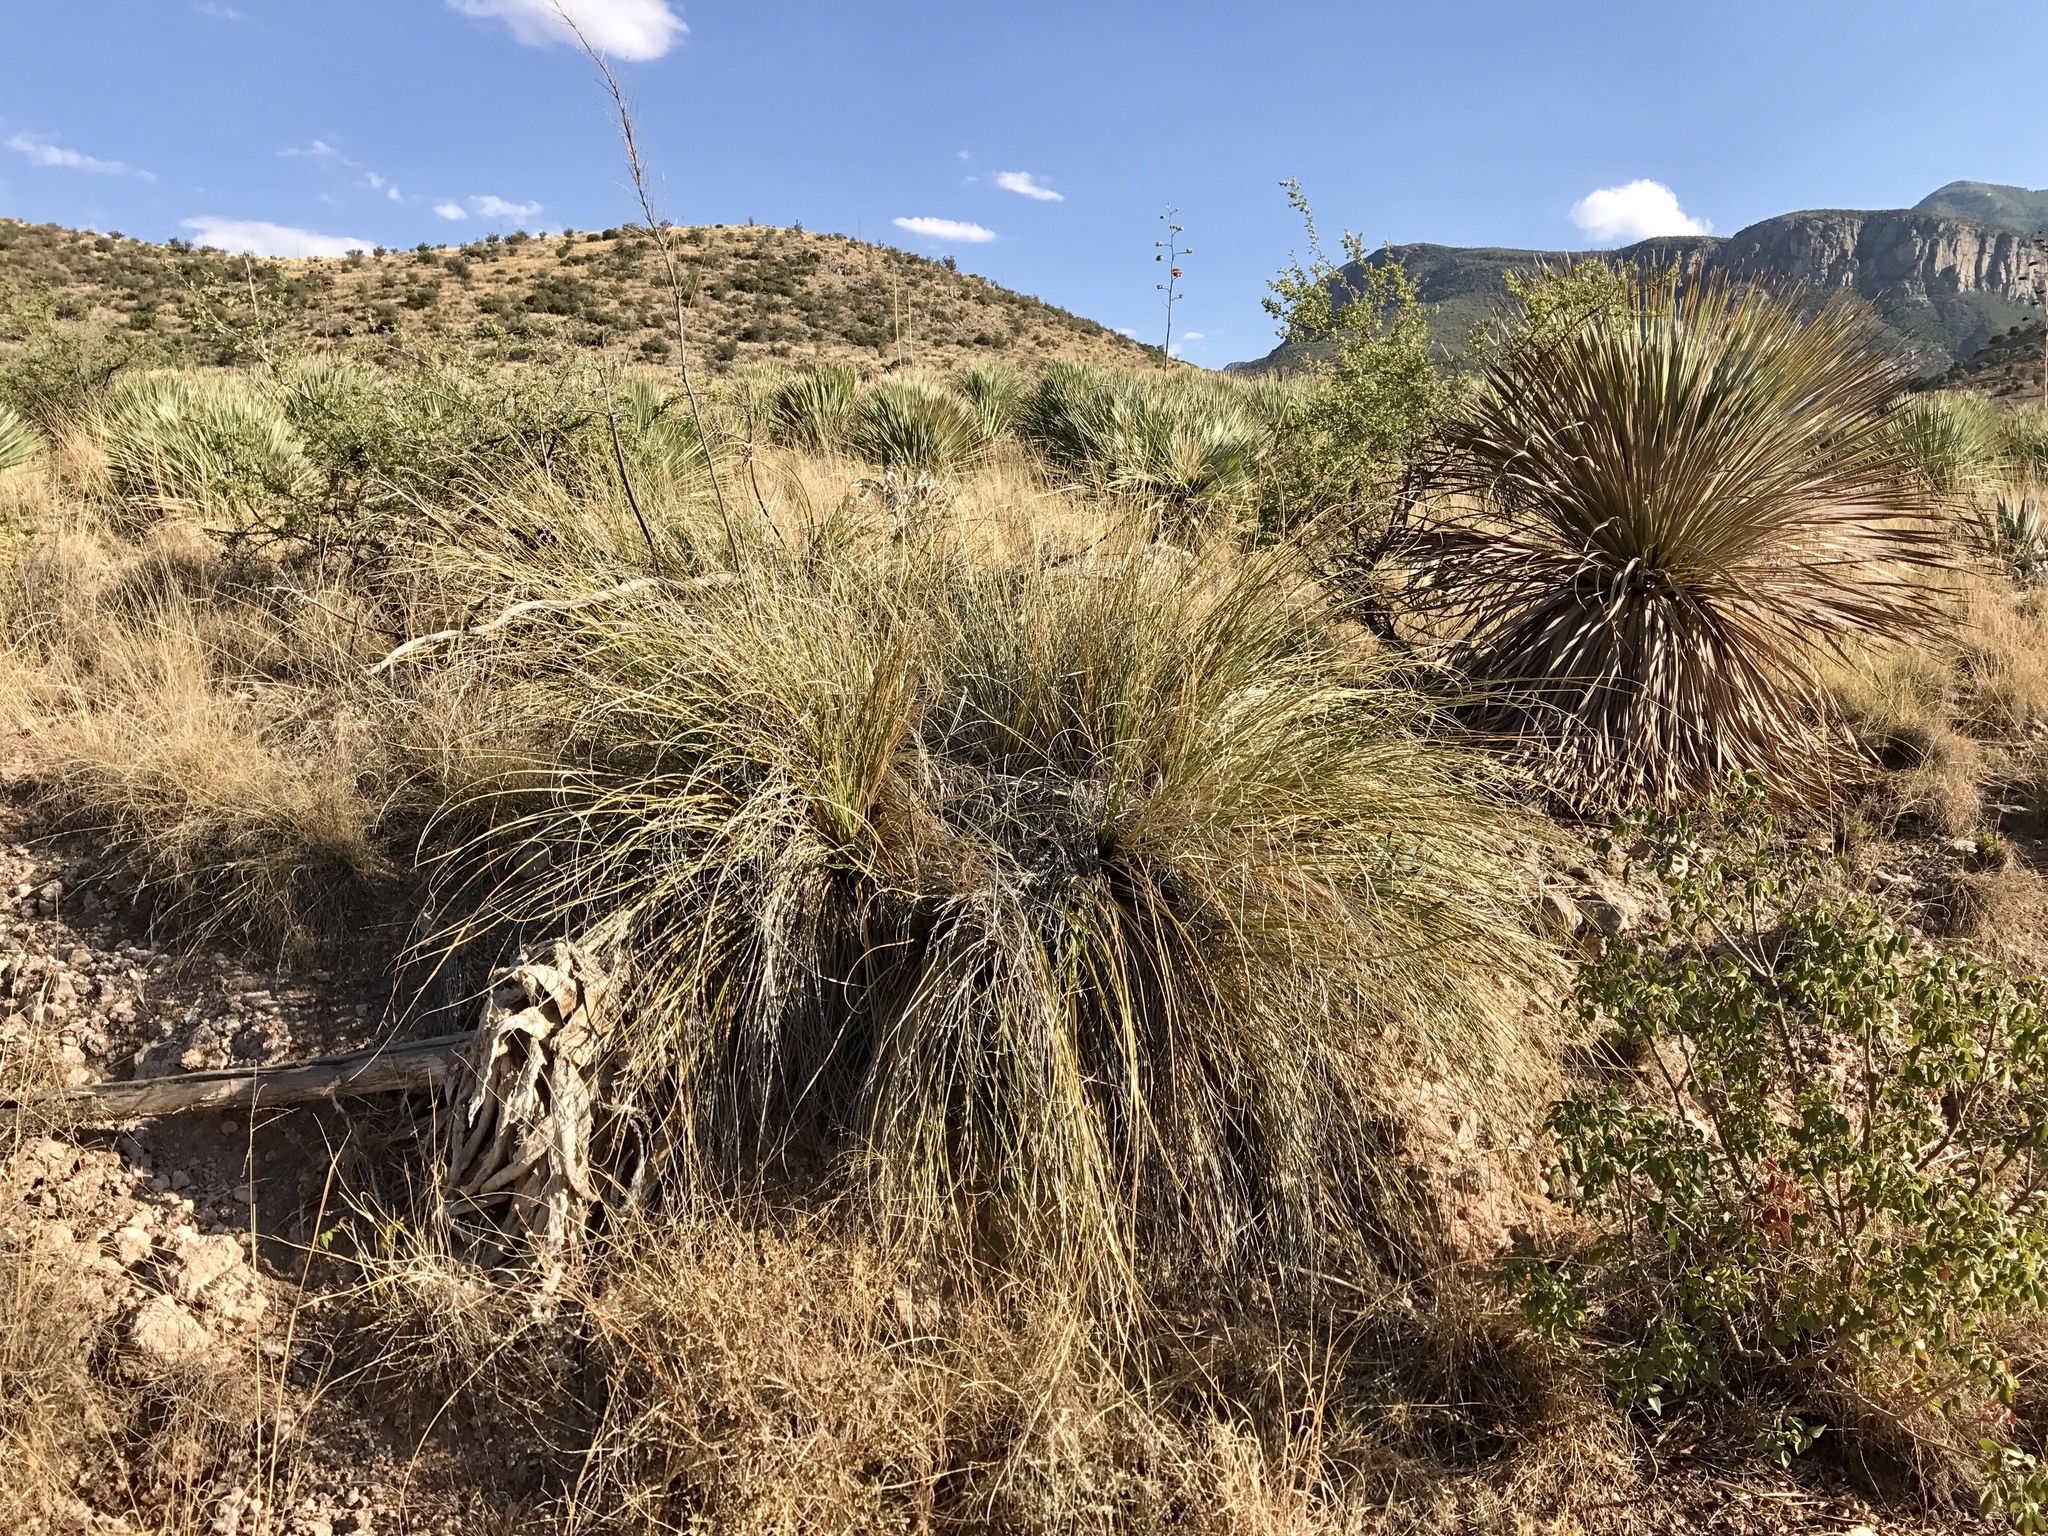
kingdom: Plantae
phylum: Tracheophyta
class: Liliopsida
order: Asparagales
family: Asparagaceae
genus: Nolina
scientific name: Nolina microcarpa
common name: Bear-grass
